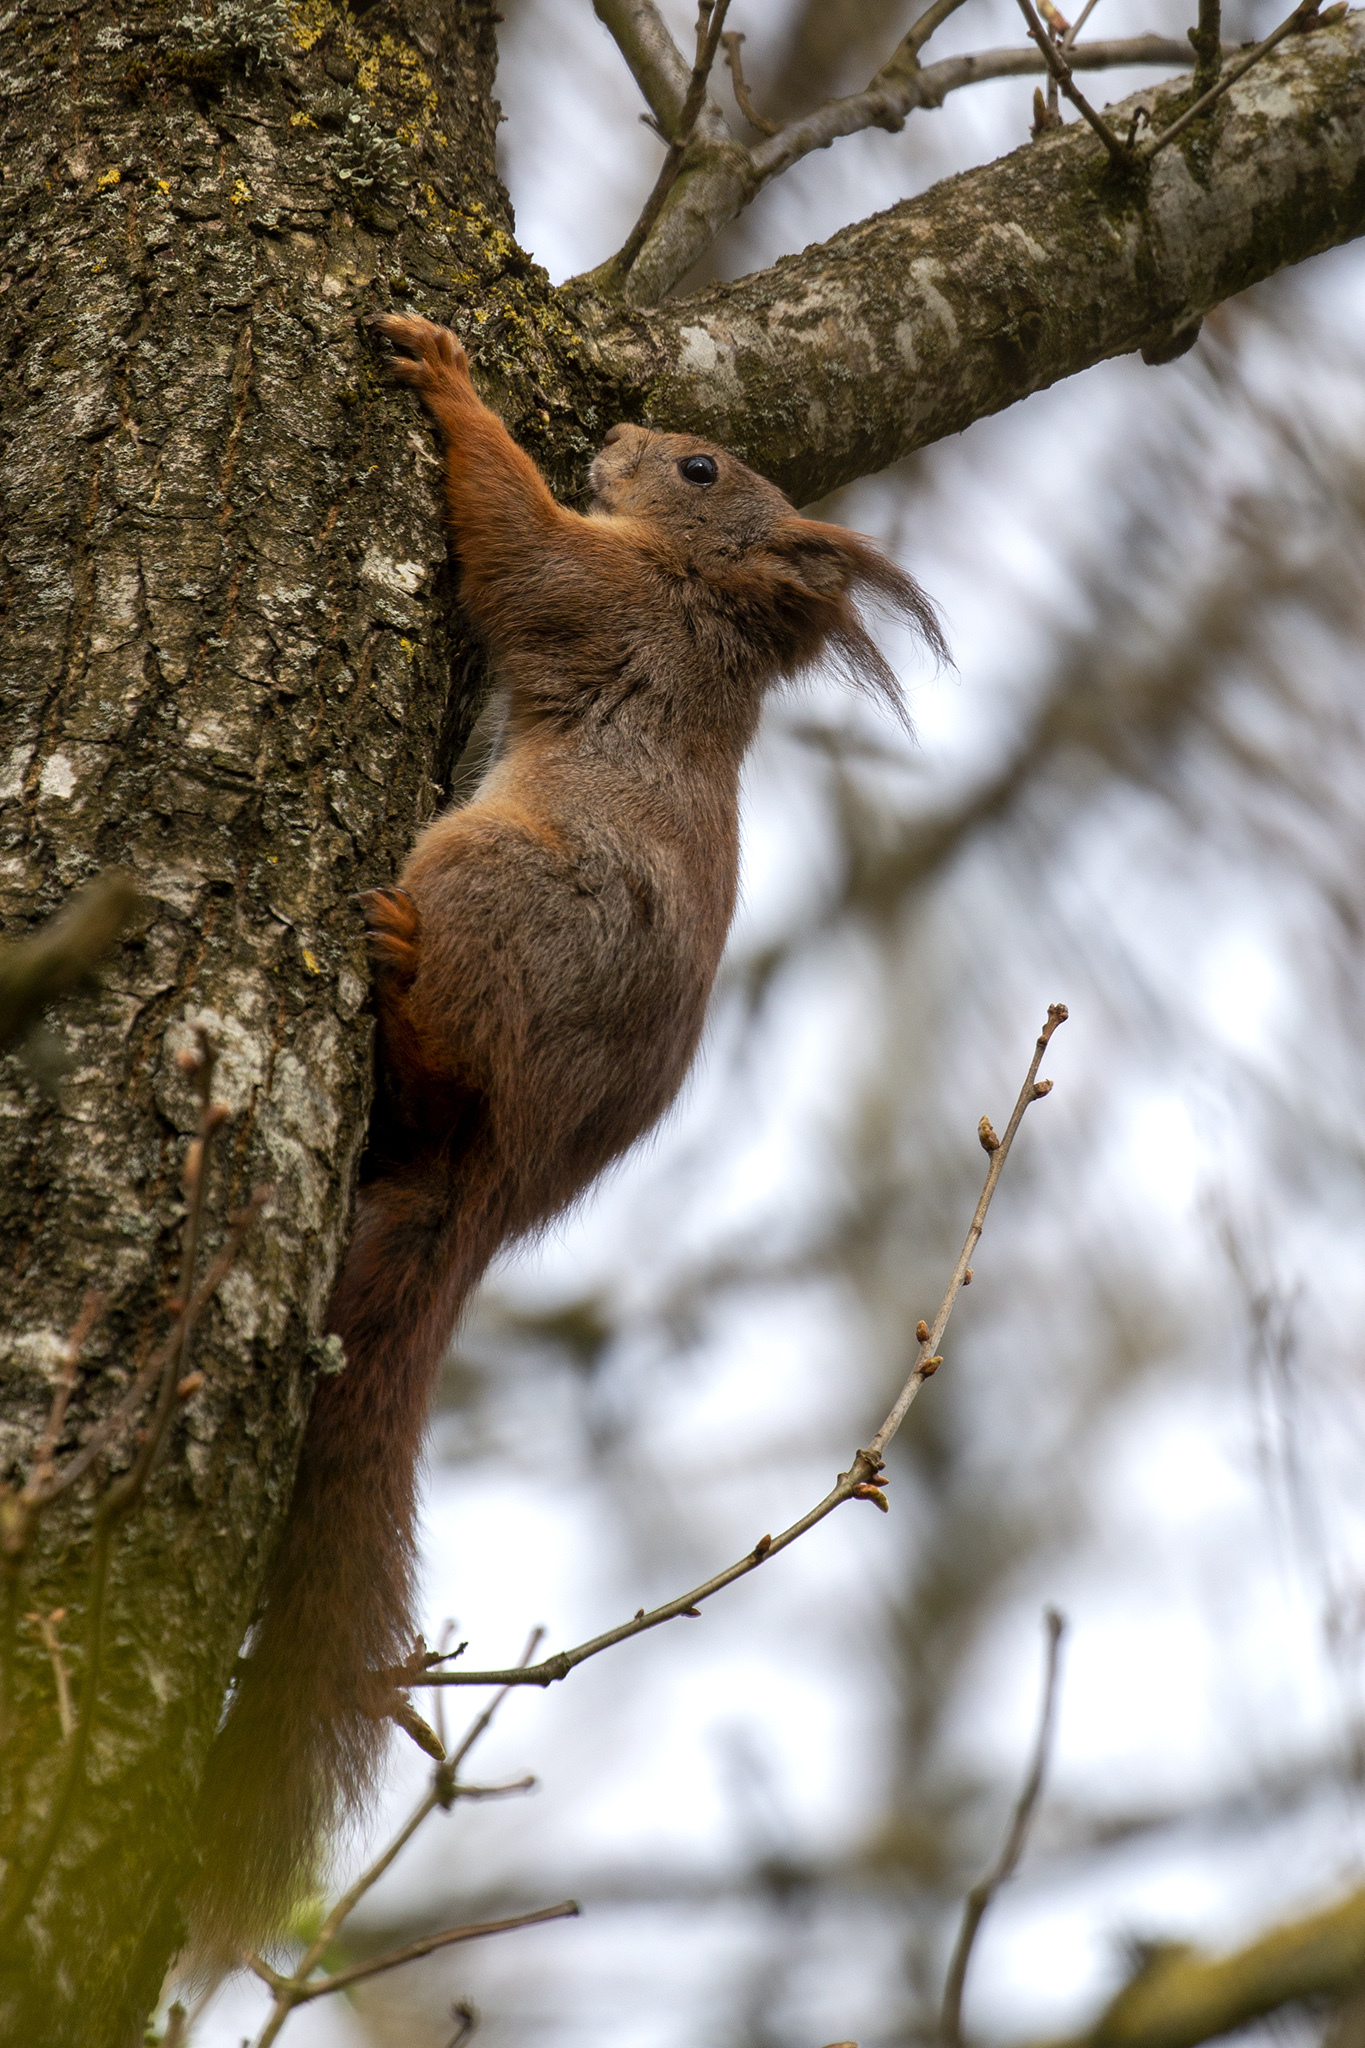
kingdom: Animalia
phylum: Chordata
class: Mammalia
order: Rodentia
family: Sciuridae
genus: Sciurus
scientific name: Sciurus vulgaris
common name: Eurasian red squirrel
